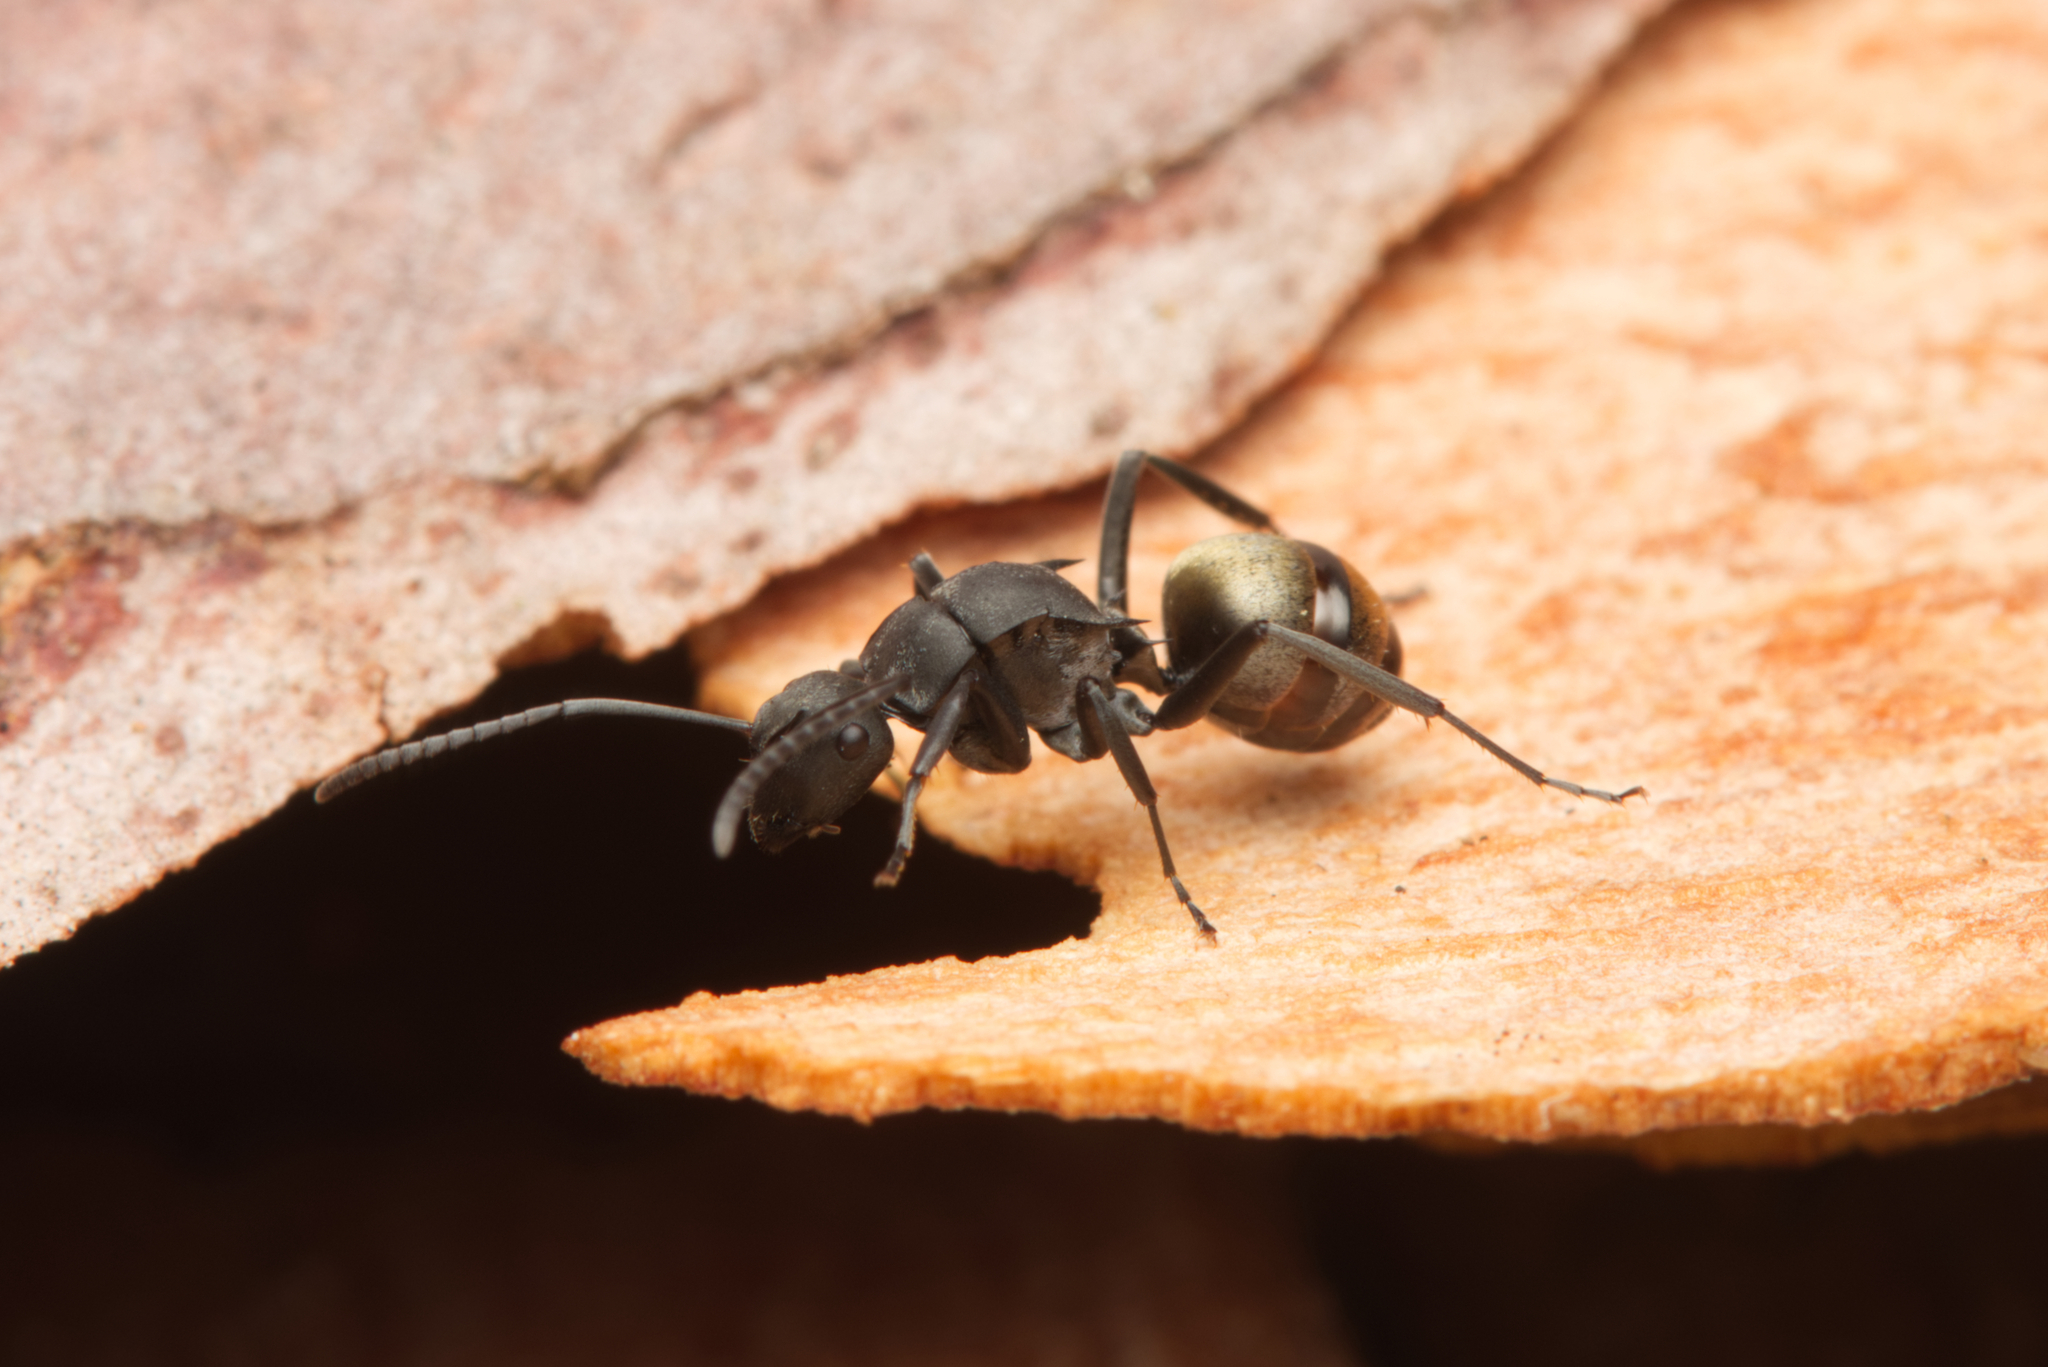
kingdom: Animalia
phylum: Arthropoda
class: Insecta
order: Hymenoptera
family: Formicidae
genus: Polyrhachis
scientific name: Polyrhachis tubifera
